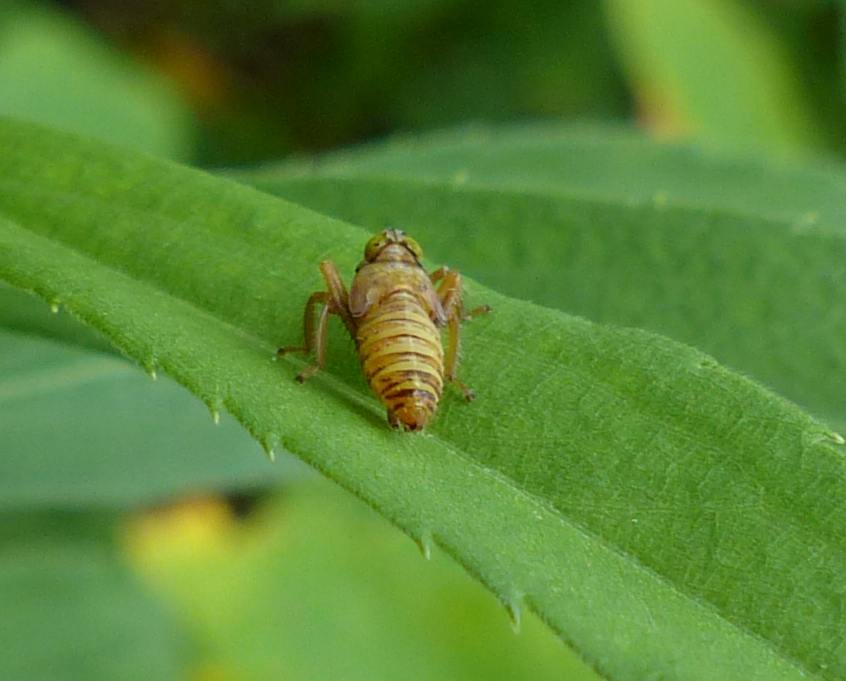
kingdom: Animalia
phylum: Arthropoda
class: Insecta
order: Hemiptera
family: Cicadellidae
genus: Jikradia
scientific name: Jikradia olitoria
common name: Coppery leafhopper
